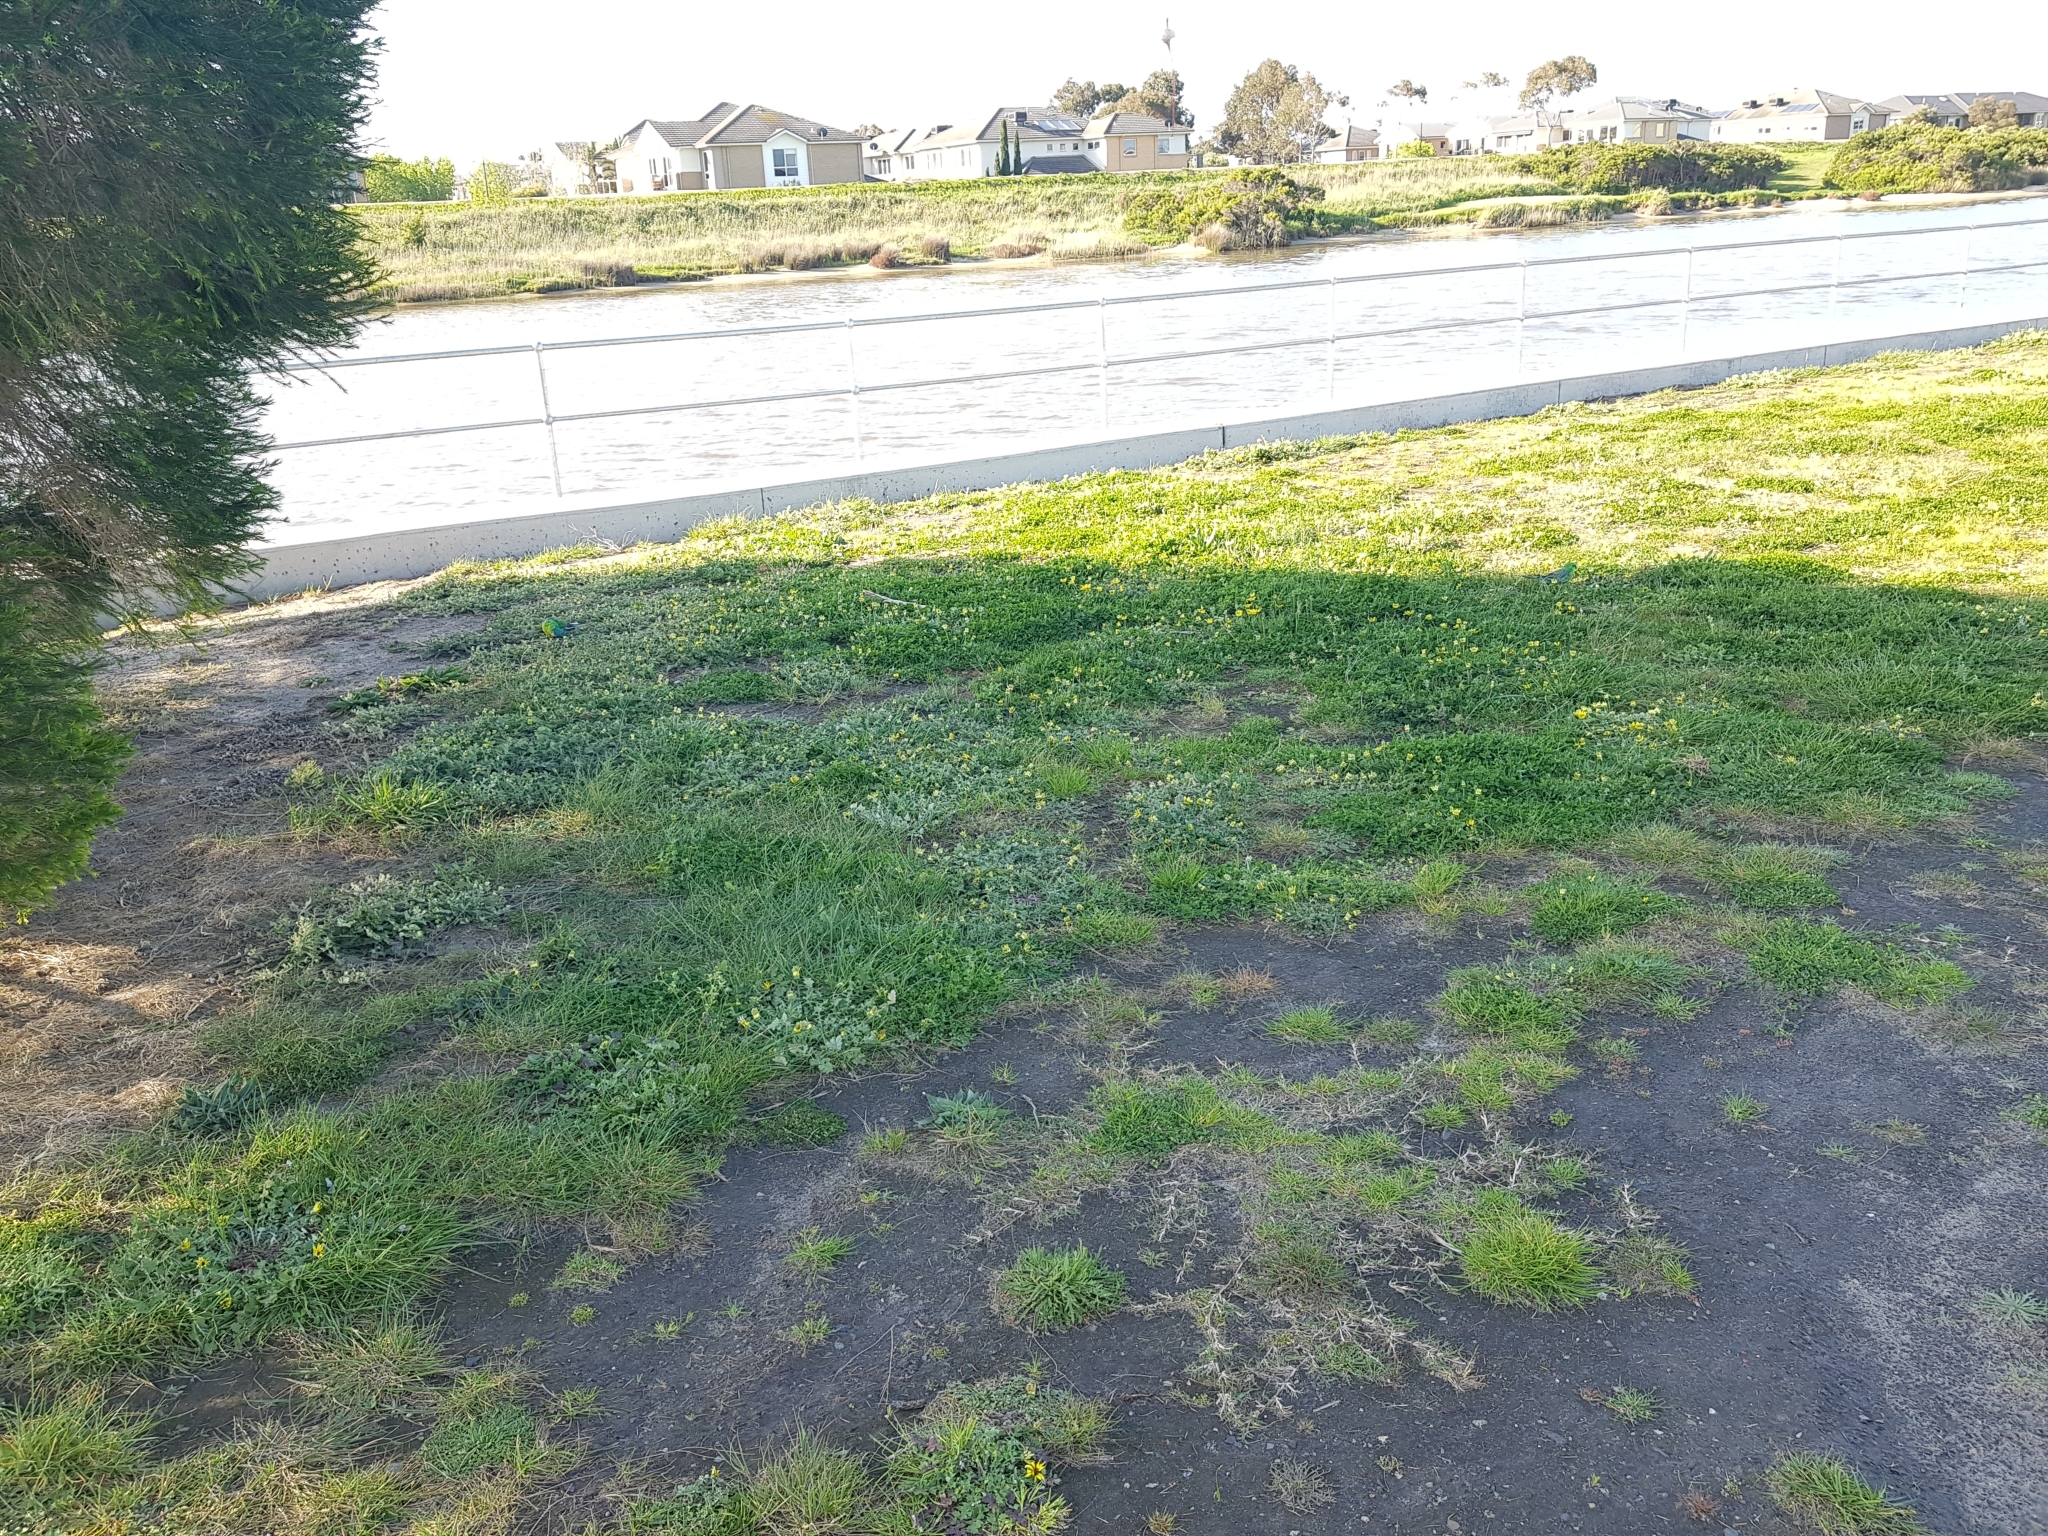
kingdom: Animalia
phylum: Chordata
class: Aves
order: Psittaciformes
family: Psittacidae
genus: Psephotus
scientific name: Psephotus haematonotus
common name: Red-rumped parrot
